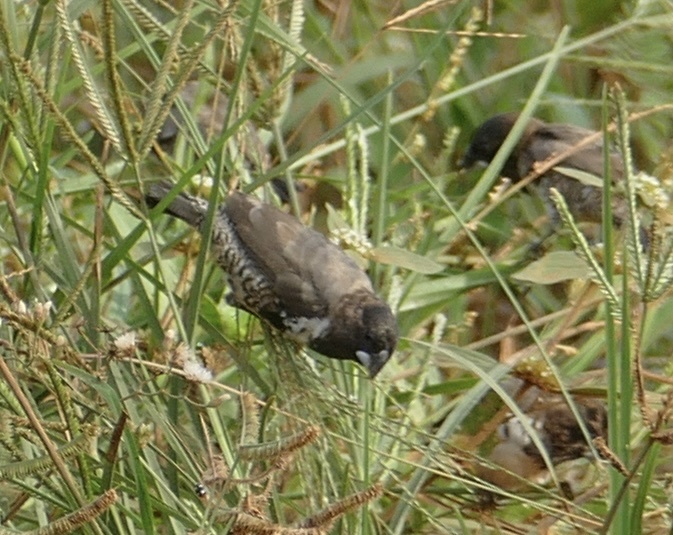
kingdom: Animalia
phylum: Chordata
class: Aves
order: Passeriformes
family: Estrildidae
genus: Lonchura
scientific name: Lonchura cucullata
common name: Bronze mannikin
